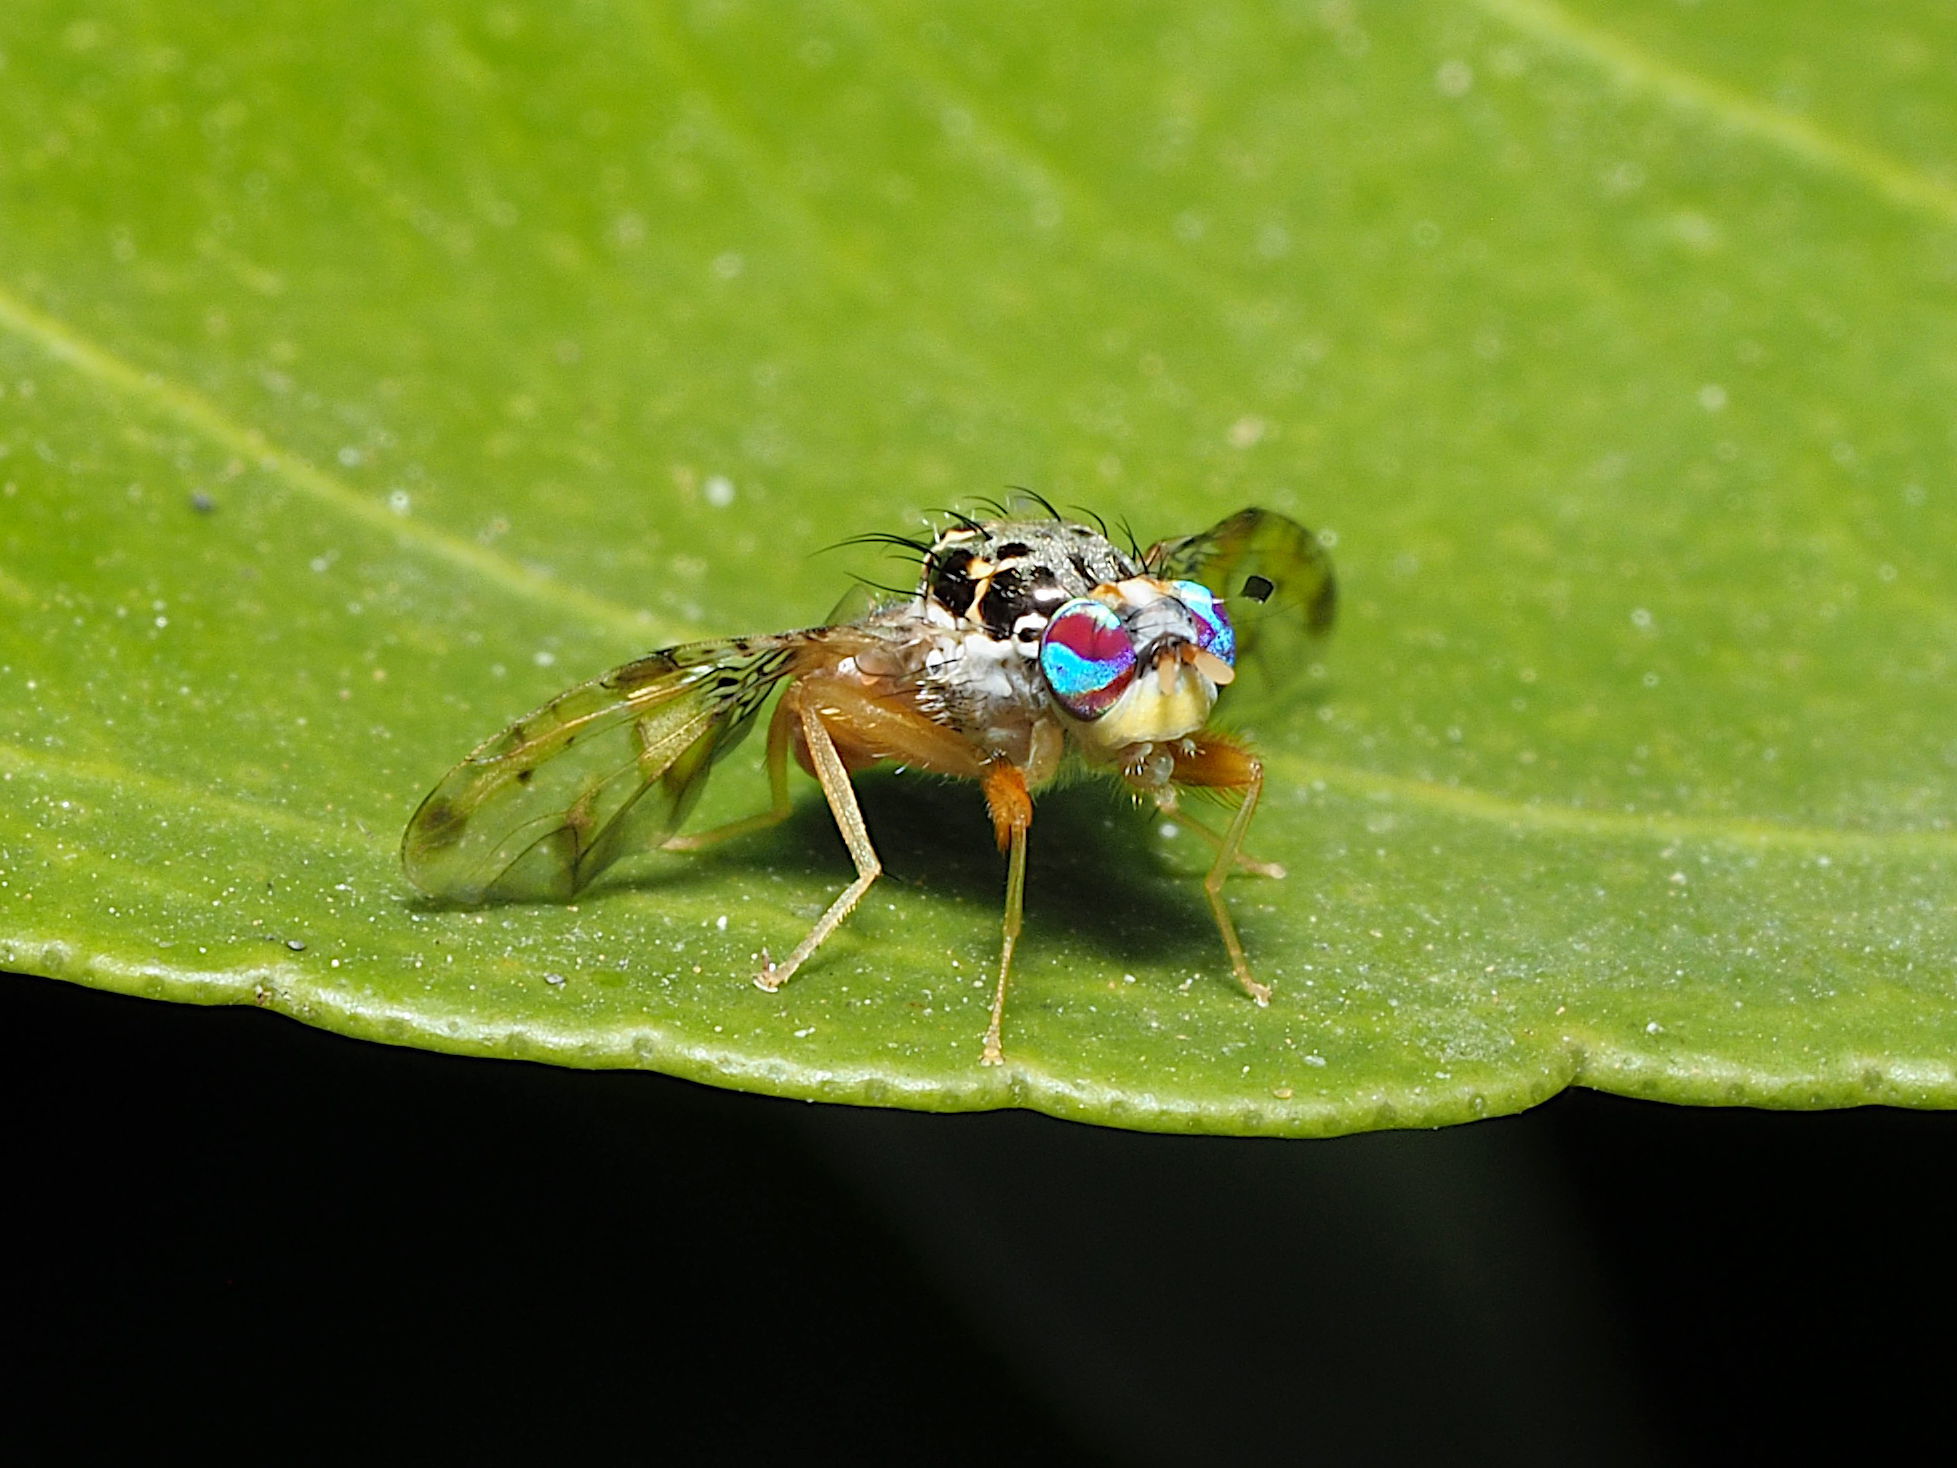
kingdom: Animalia
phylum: Arthropoda
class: Insecta
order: Diptera
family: Tephritidae
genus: Ceratitis
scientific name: Ceratitis capitata
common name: Mediterranean fruit fly
